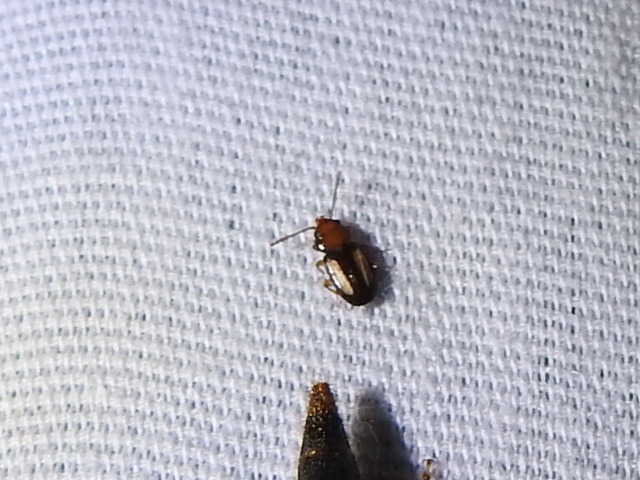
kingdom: Animalia
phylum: Arthropoda
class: Insecta
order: Coleoptera
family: Laemophloeidae
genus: Laemophloeus
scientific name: Laemophloeus terminalis
